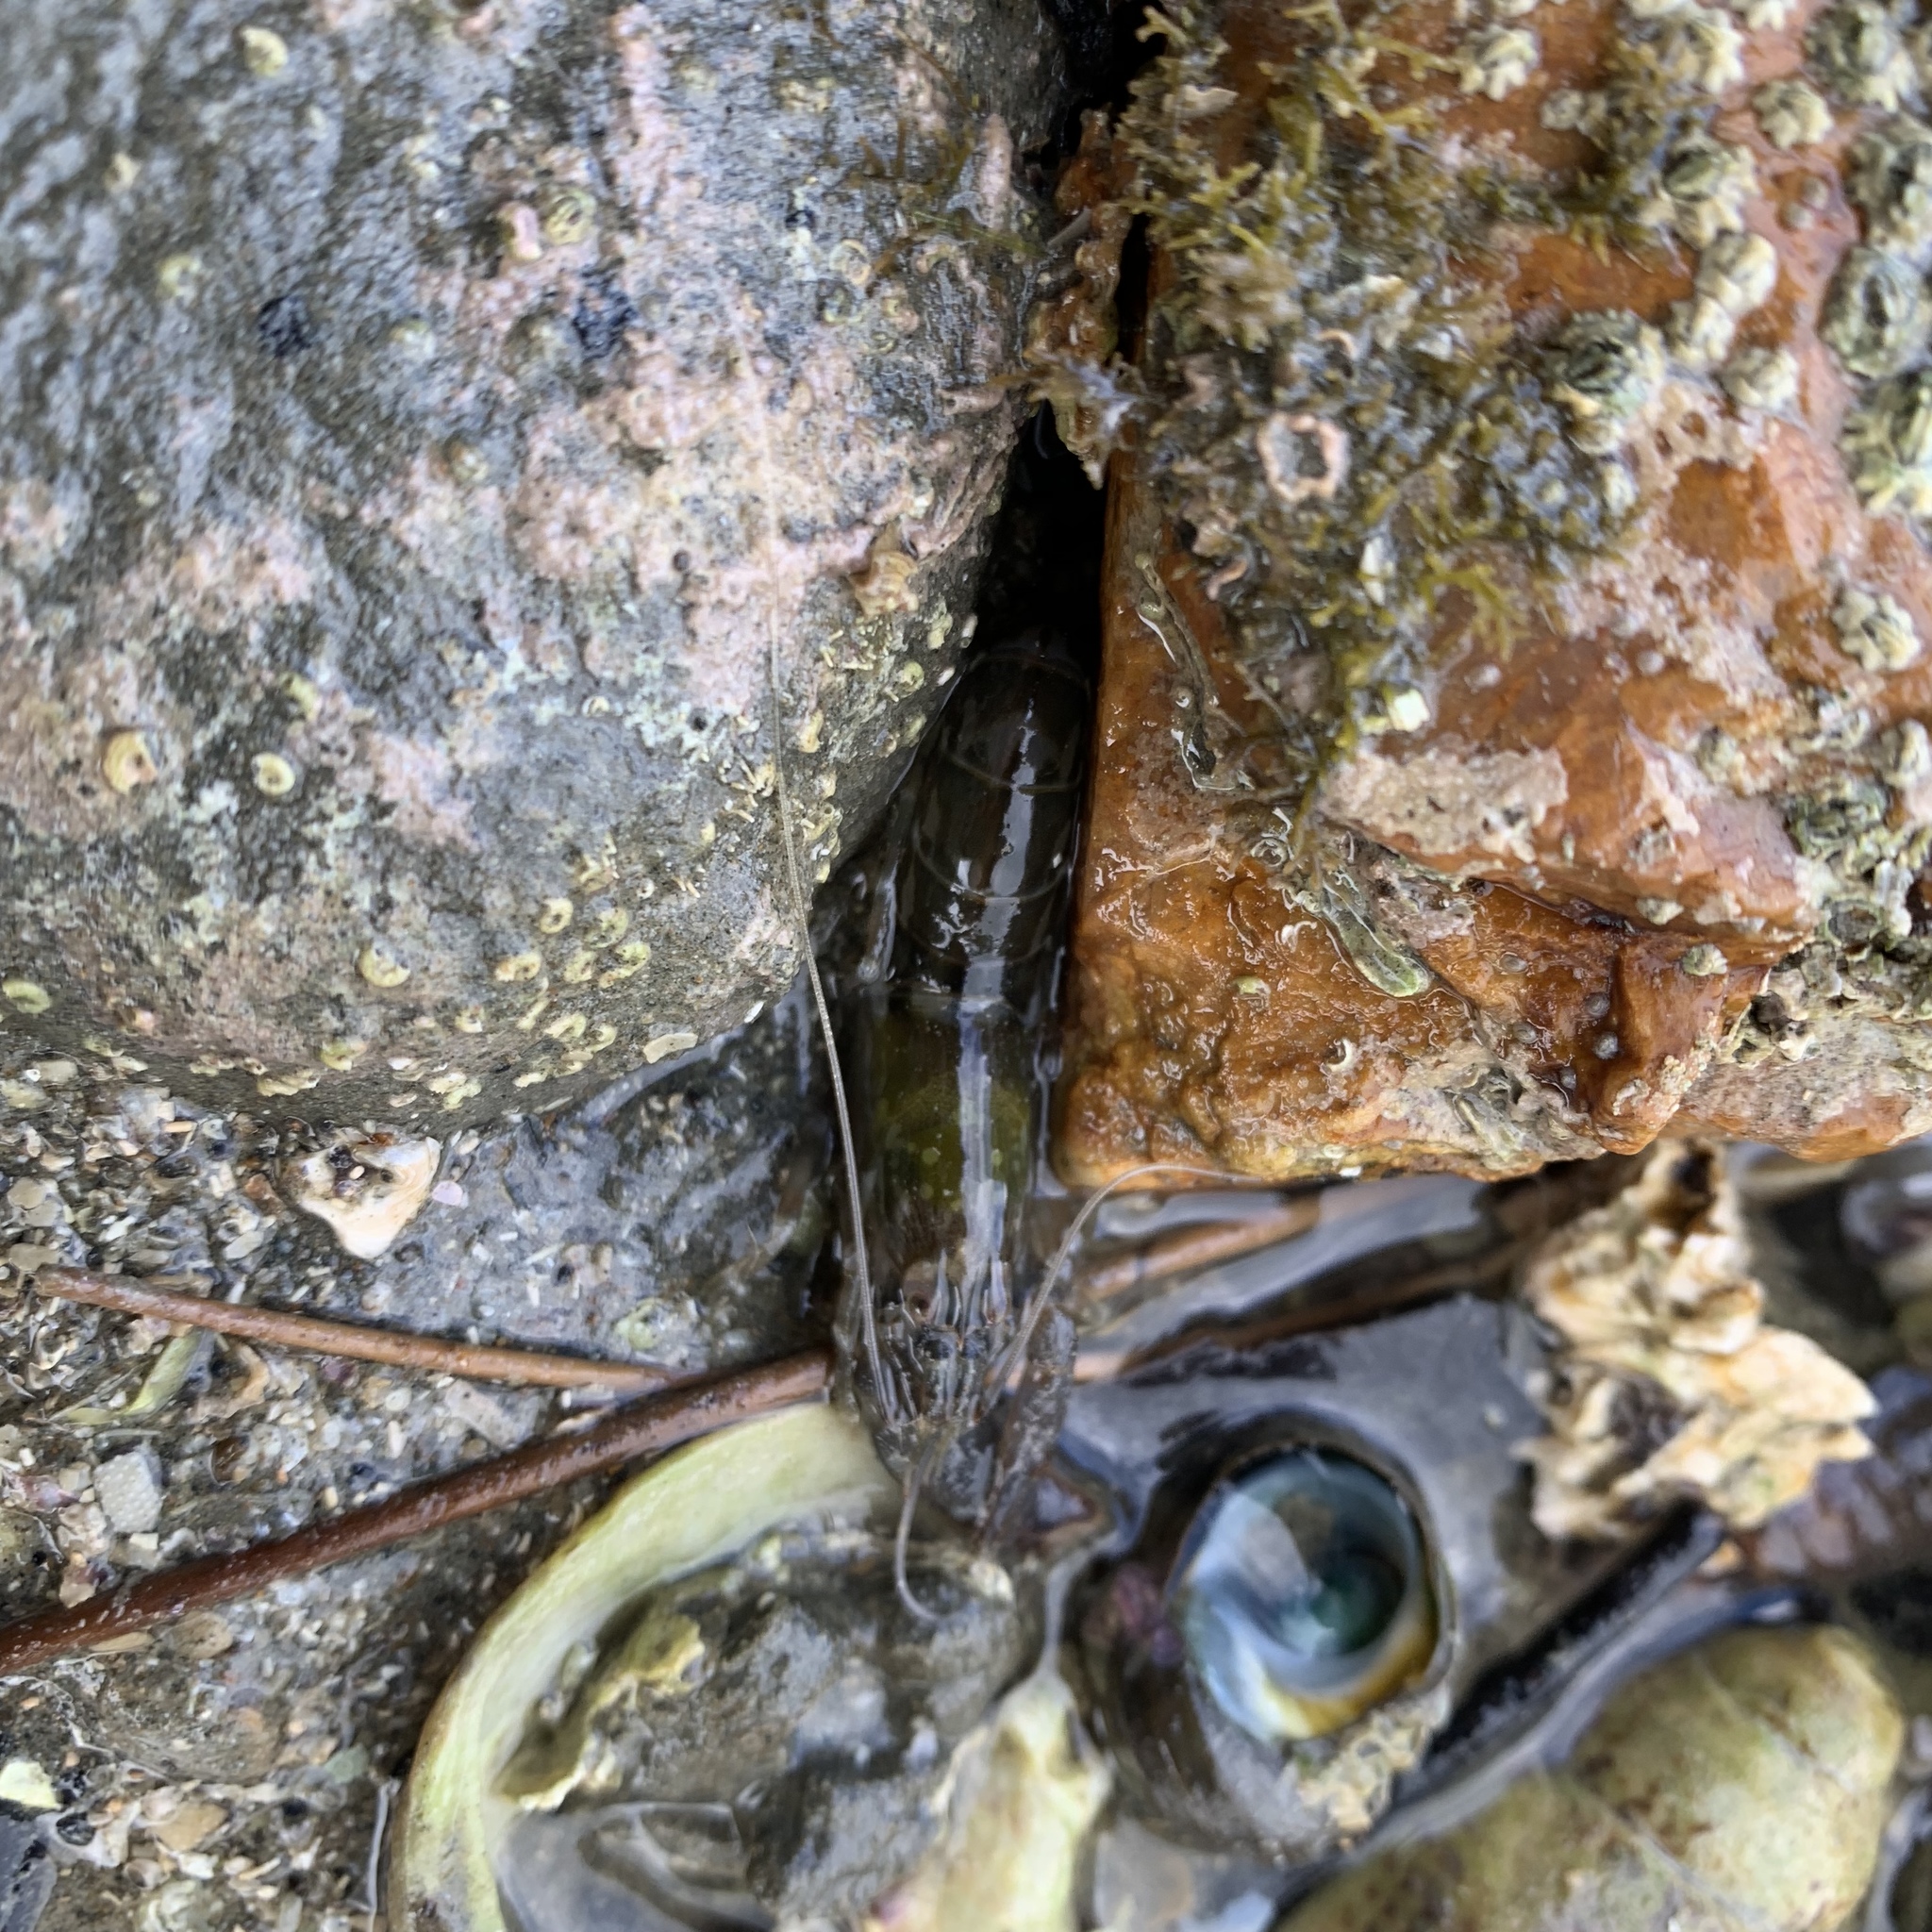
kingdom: Animalia
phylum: Arthropoda
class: Malacostraca
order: Decapoda
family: Alpheidae
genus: Alpheus
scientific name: Alpheus novaezealandiae
